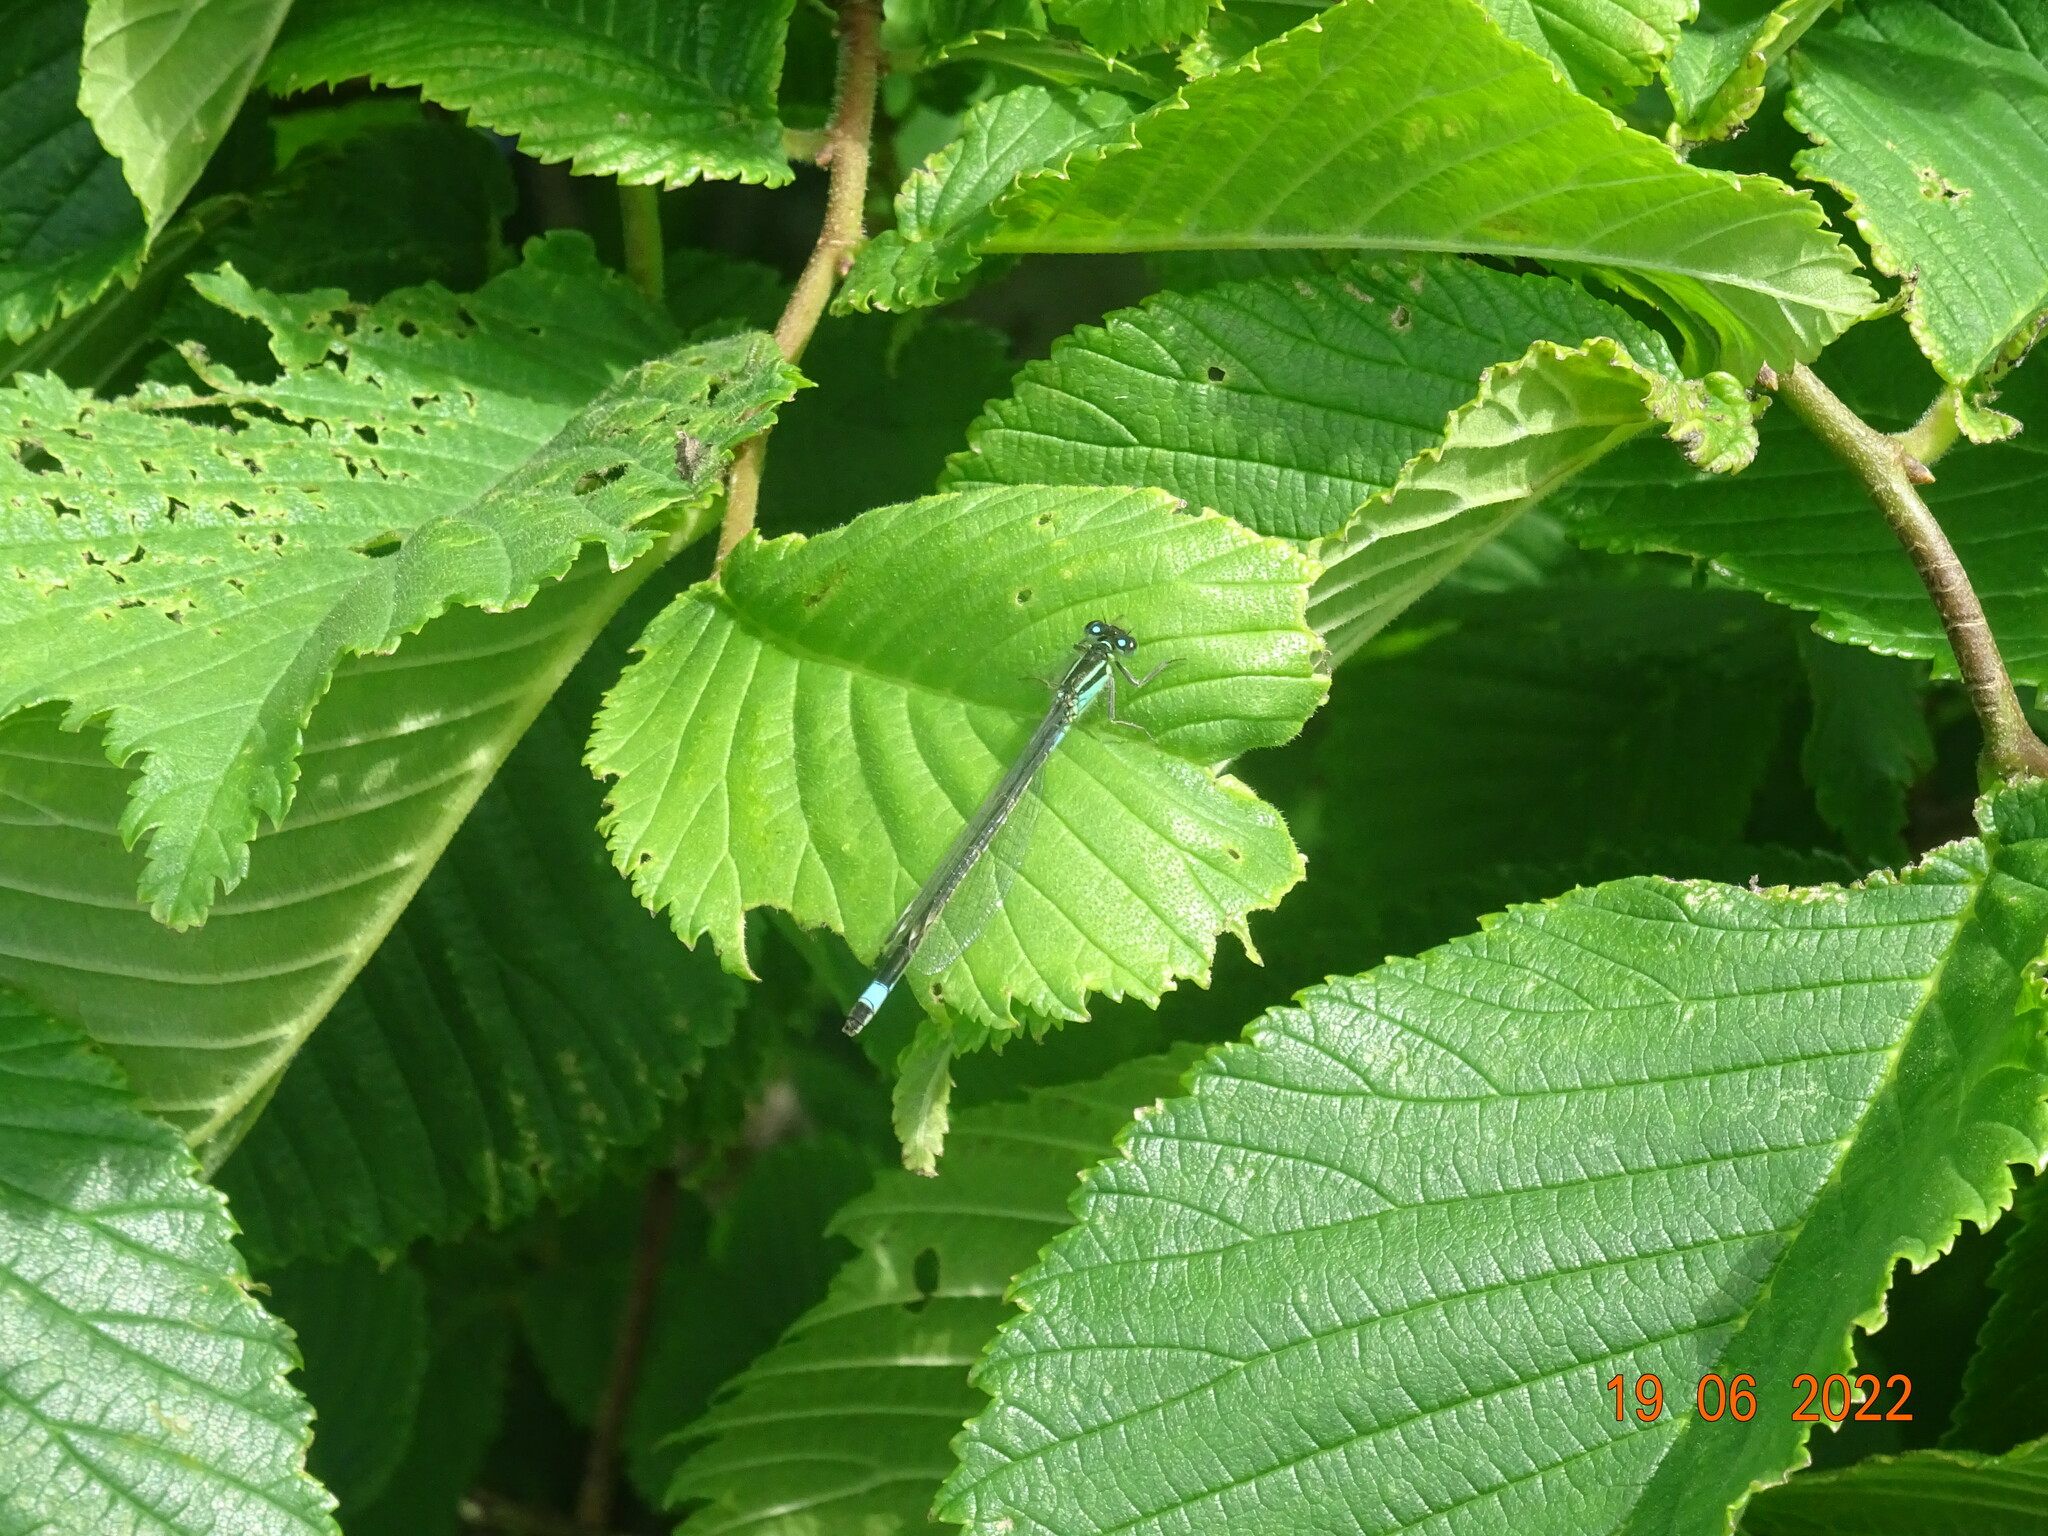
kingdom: Animalia
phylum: Arthropoda
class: Insecta
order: Odonata
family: Coenagrionidae
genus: Ischnura
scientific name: Ischnura elegans
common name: Blue-tailed damselfly
